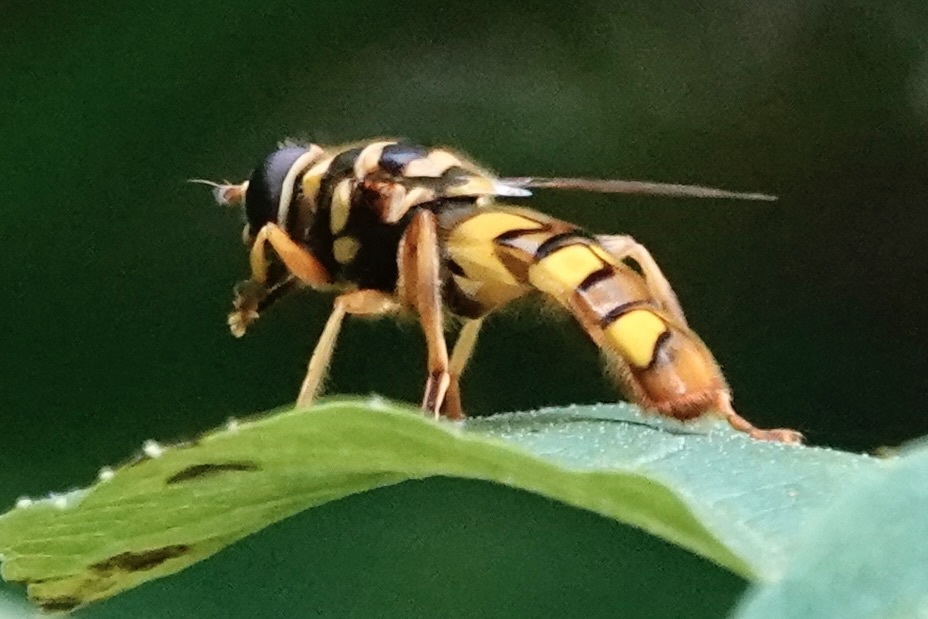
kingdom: Animalia
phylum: Arthropoda
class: Insecta
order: Diptera
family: Syrphidae
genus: Milesia
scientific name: Milesia virginiensis
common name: Virginia giant
